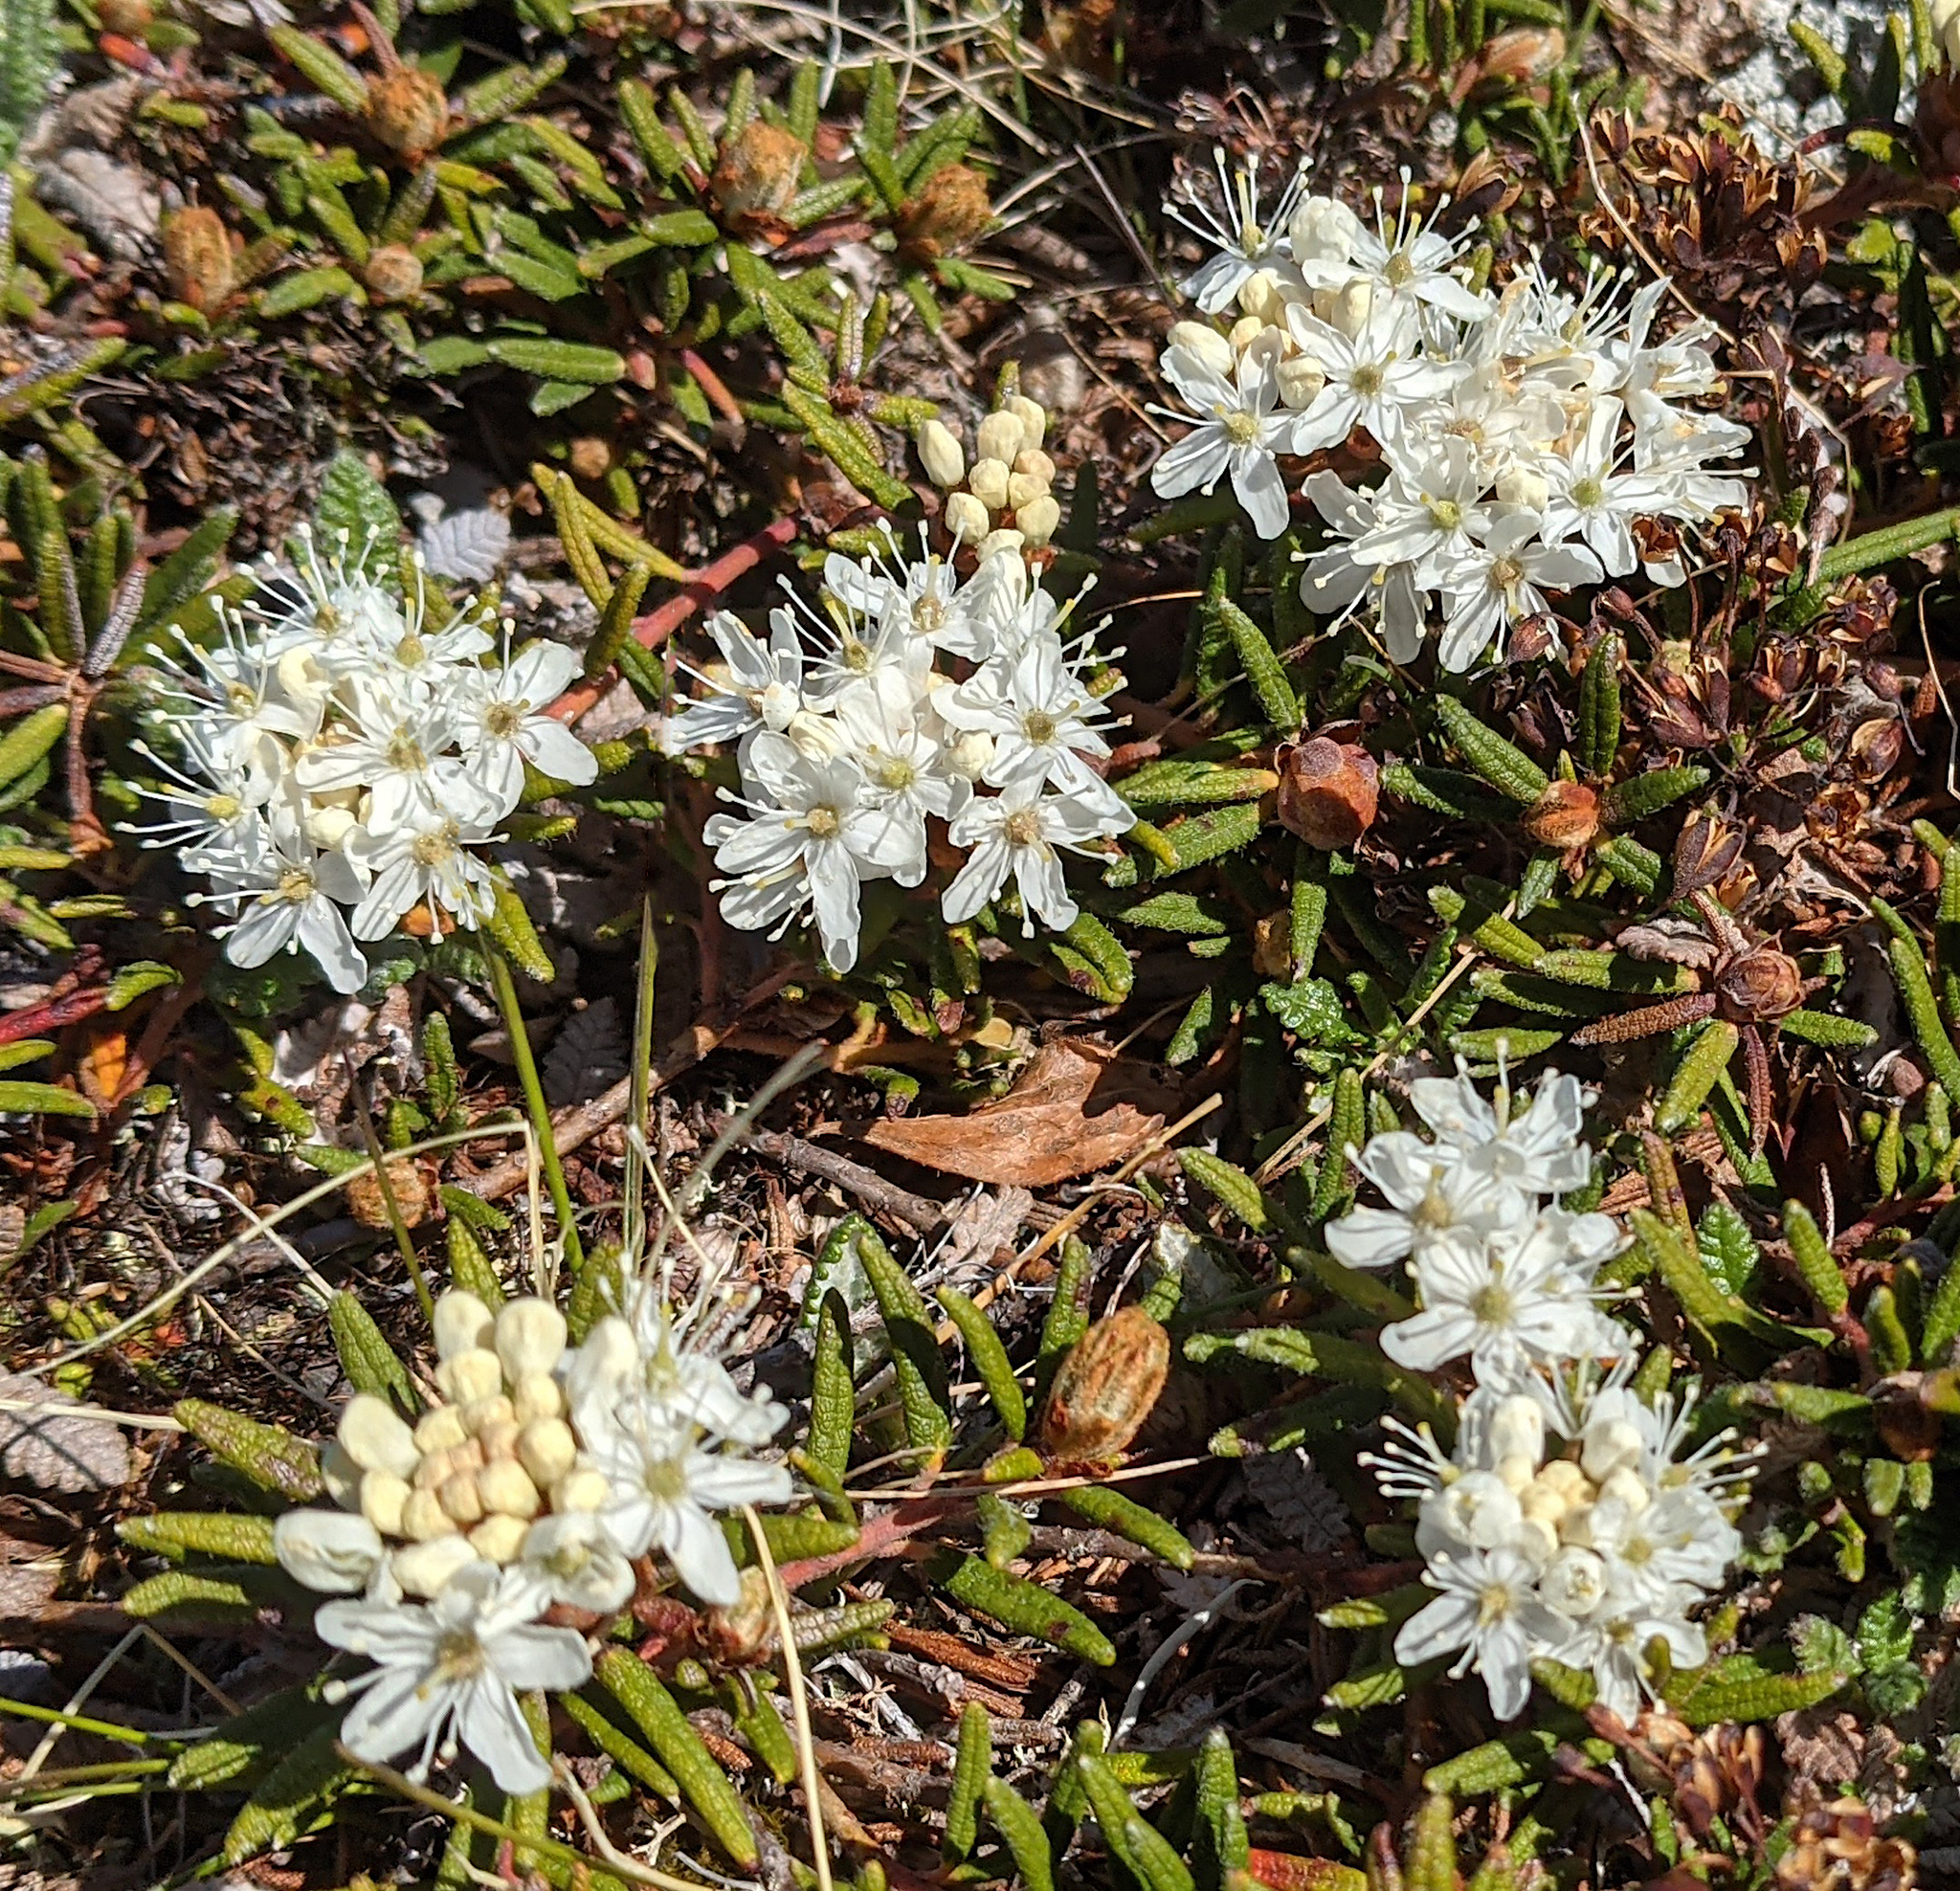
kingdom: Plantae
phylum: Tracheophyta
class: Magnoliopsida
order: Ericales
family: Ericaceae
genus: Rhododendron
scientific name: Rhododendron groenlandicum
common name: Bog labrador tea
